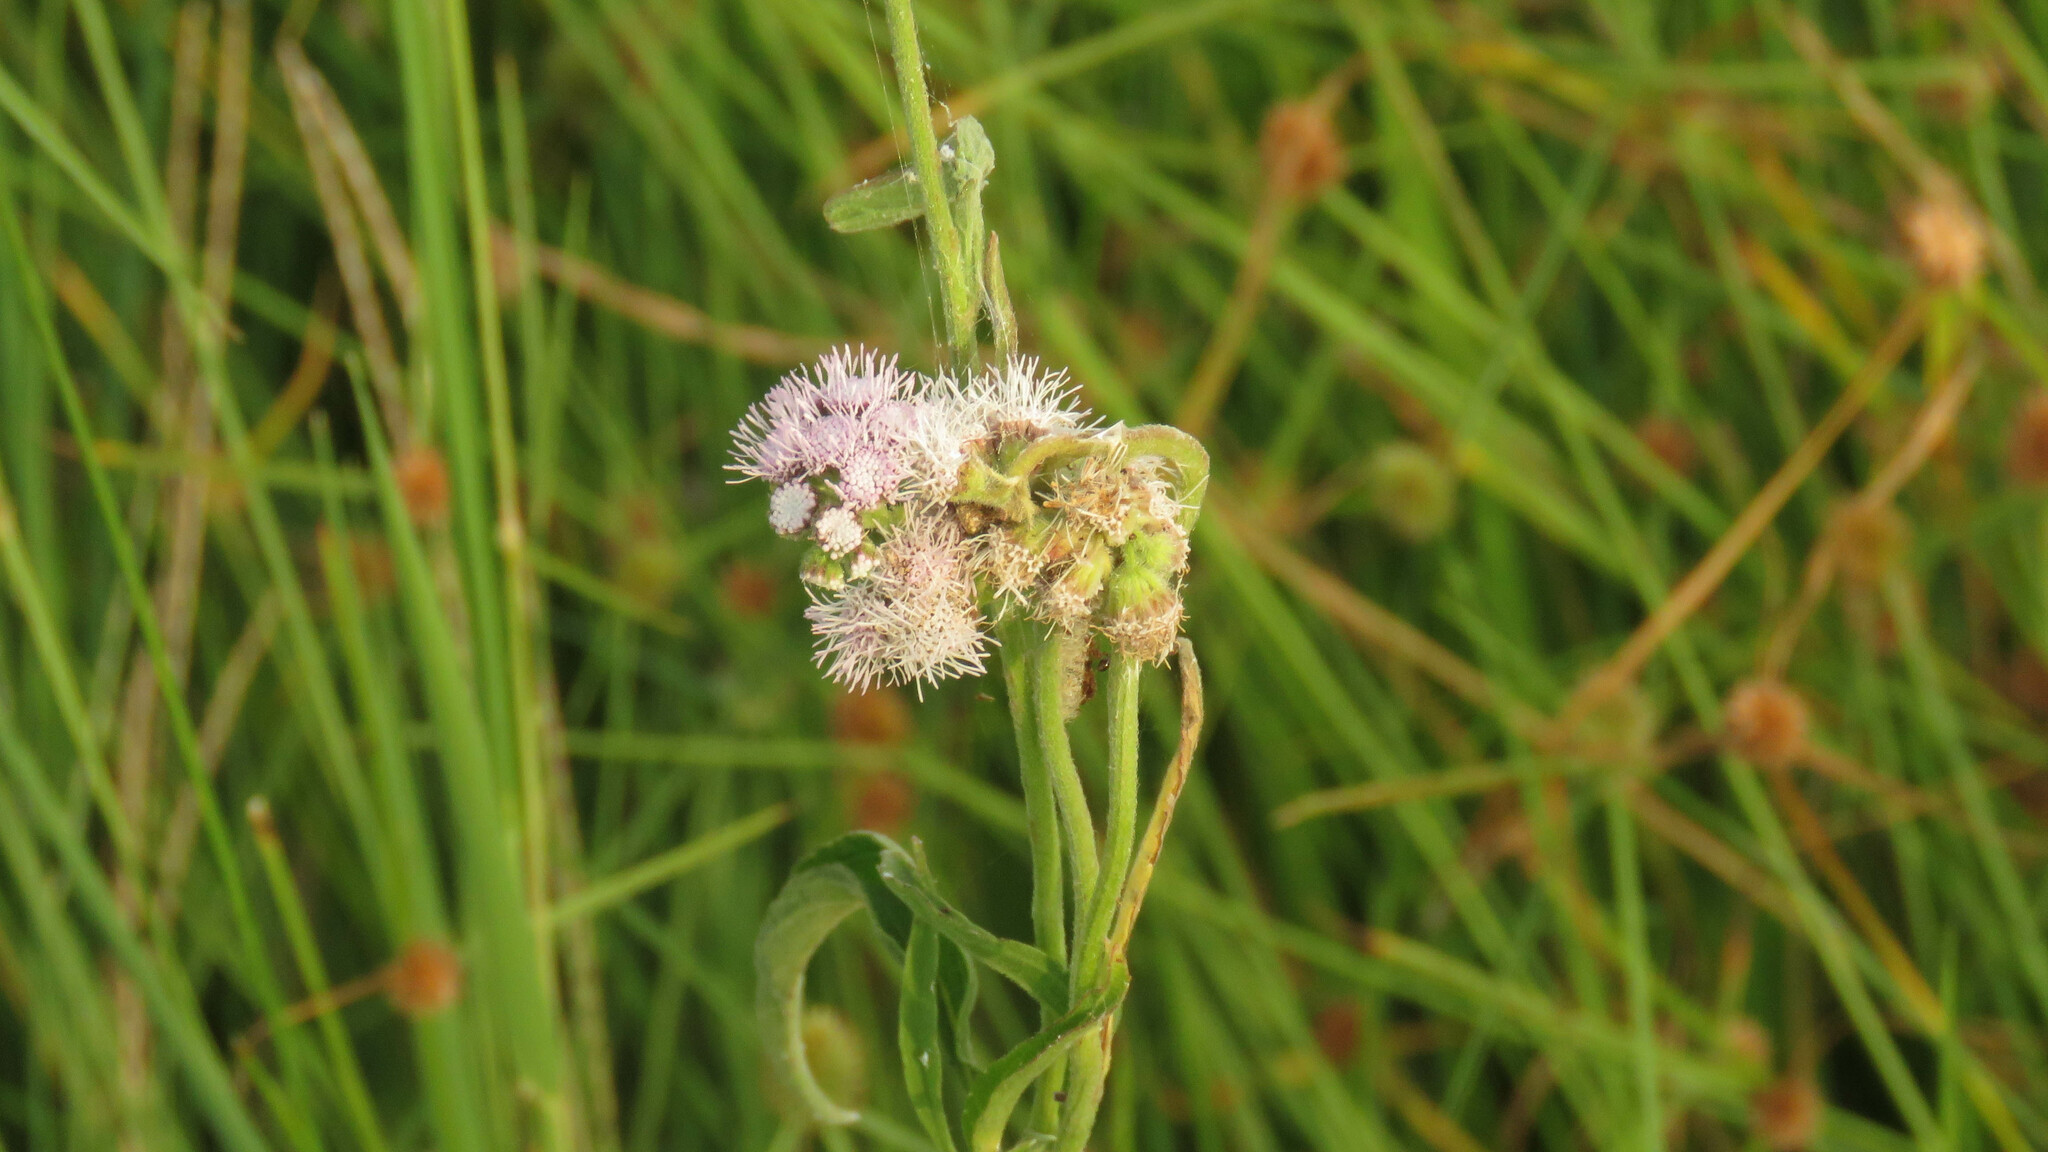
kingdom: Plantae
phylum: Tracheophyta
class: Magnoliopsida
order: Asterales
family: Asteraceae
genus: Barrosoa
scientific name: Barrosoa candolleana
